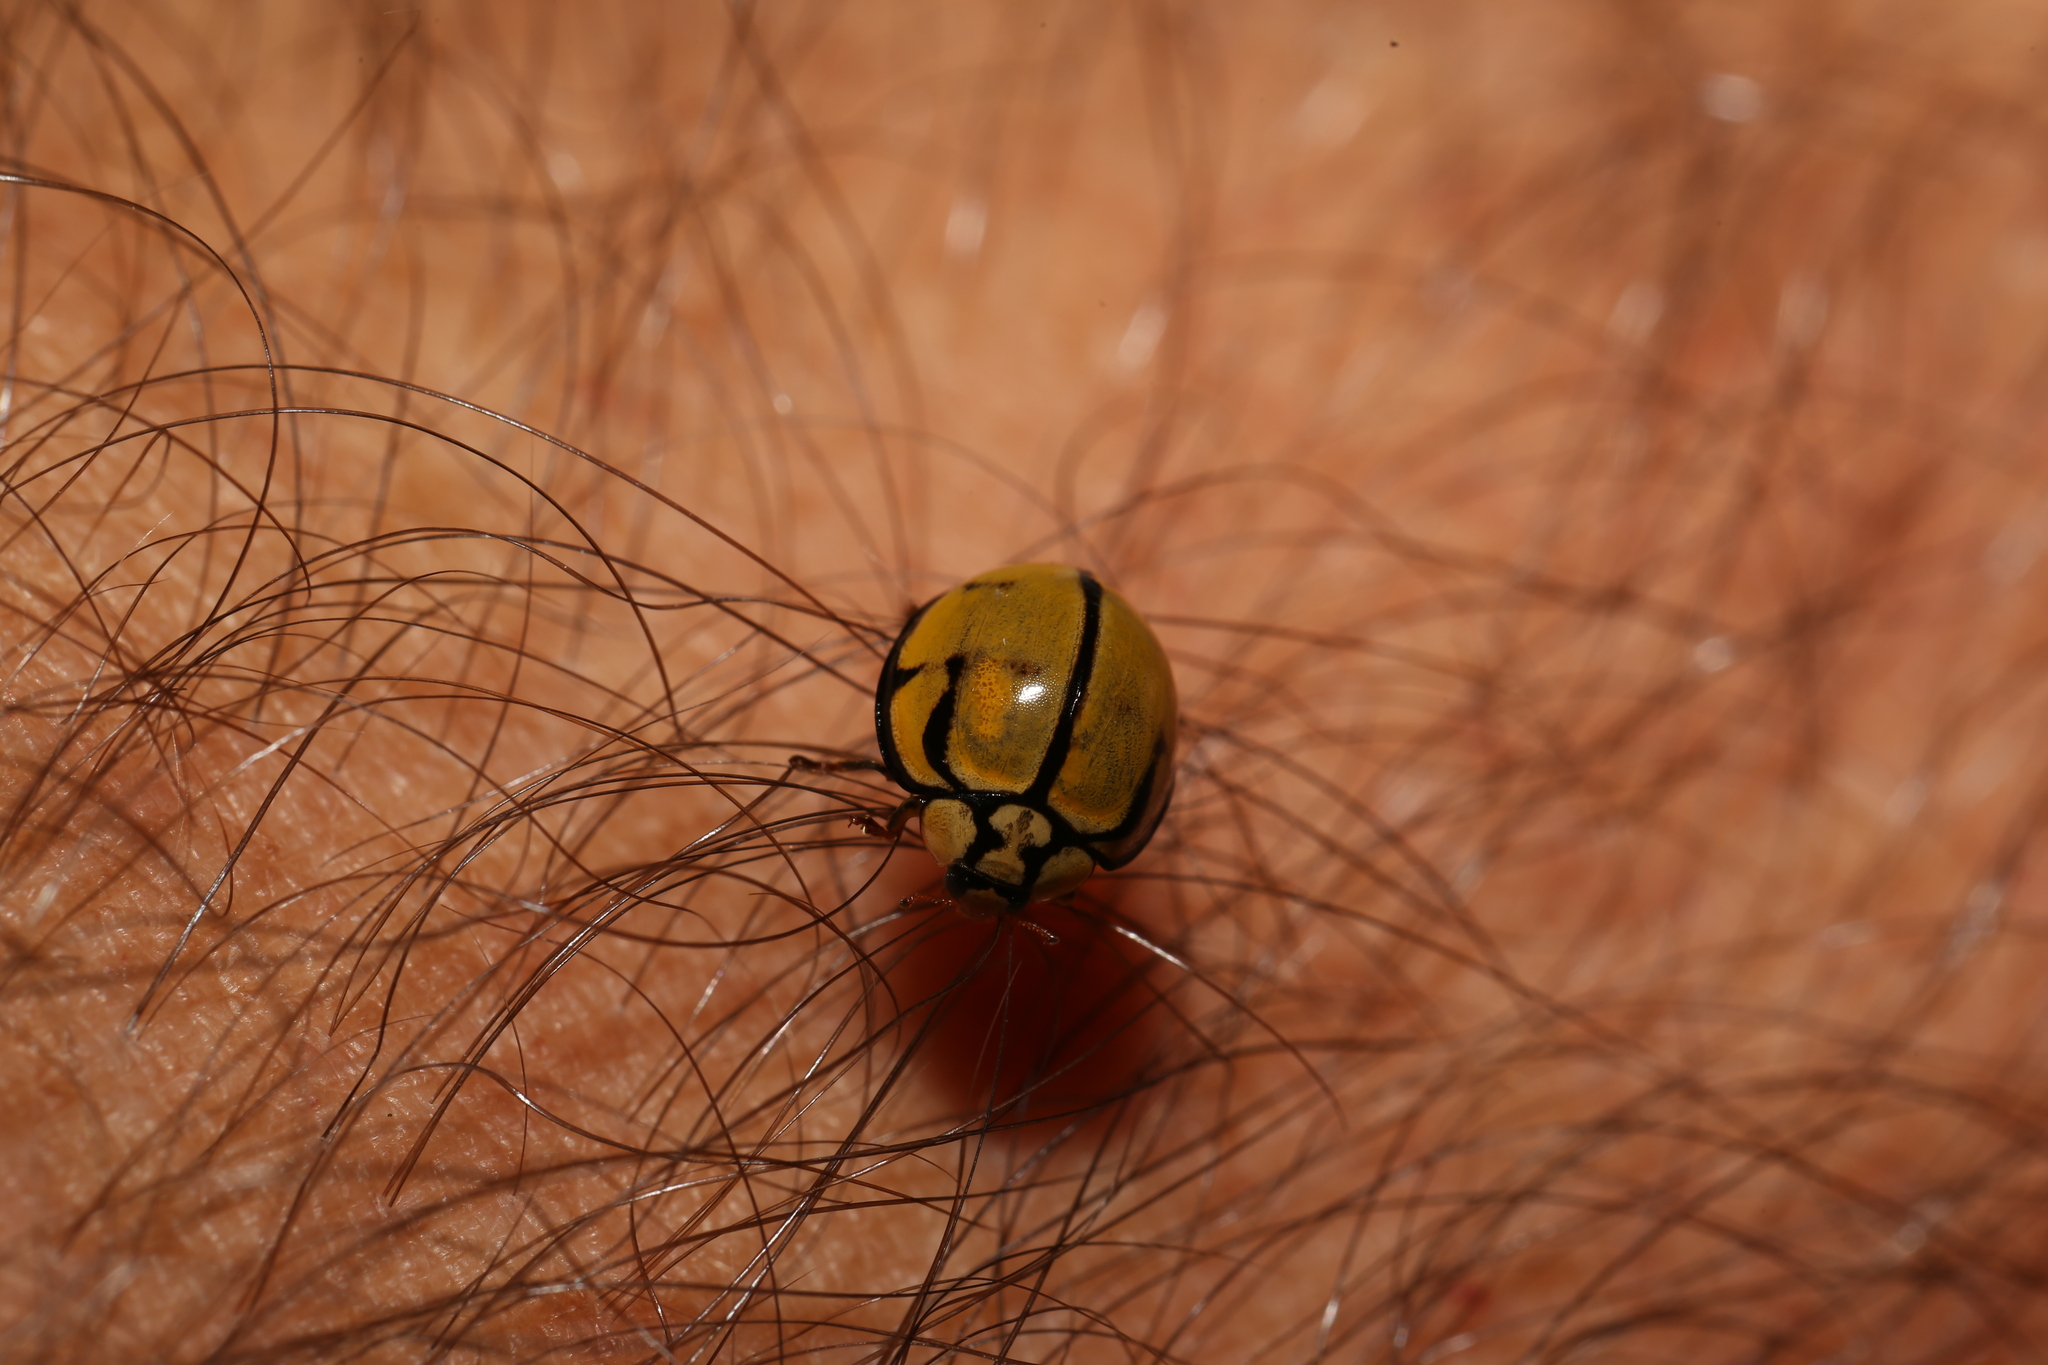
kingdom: Animalia
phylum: Arthropoda
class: Insecta
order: Coleoptera
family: Coccinellidae
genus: Harmonia
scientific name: Harmonia
